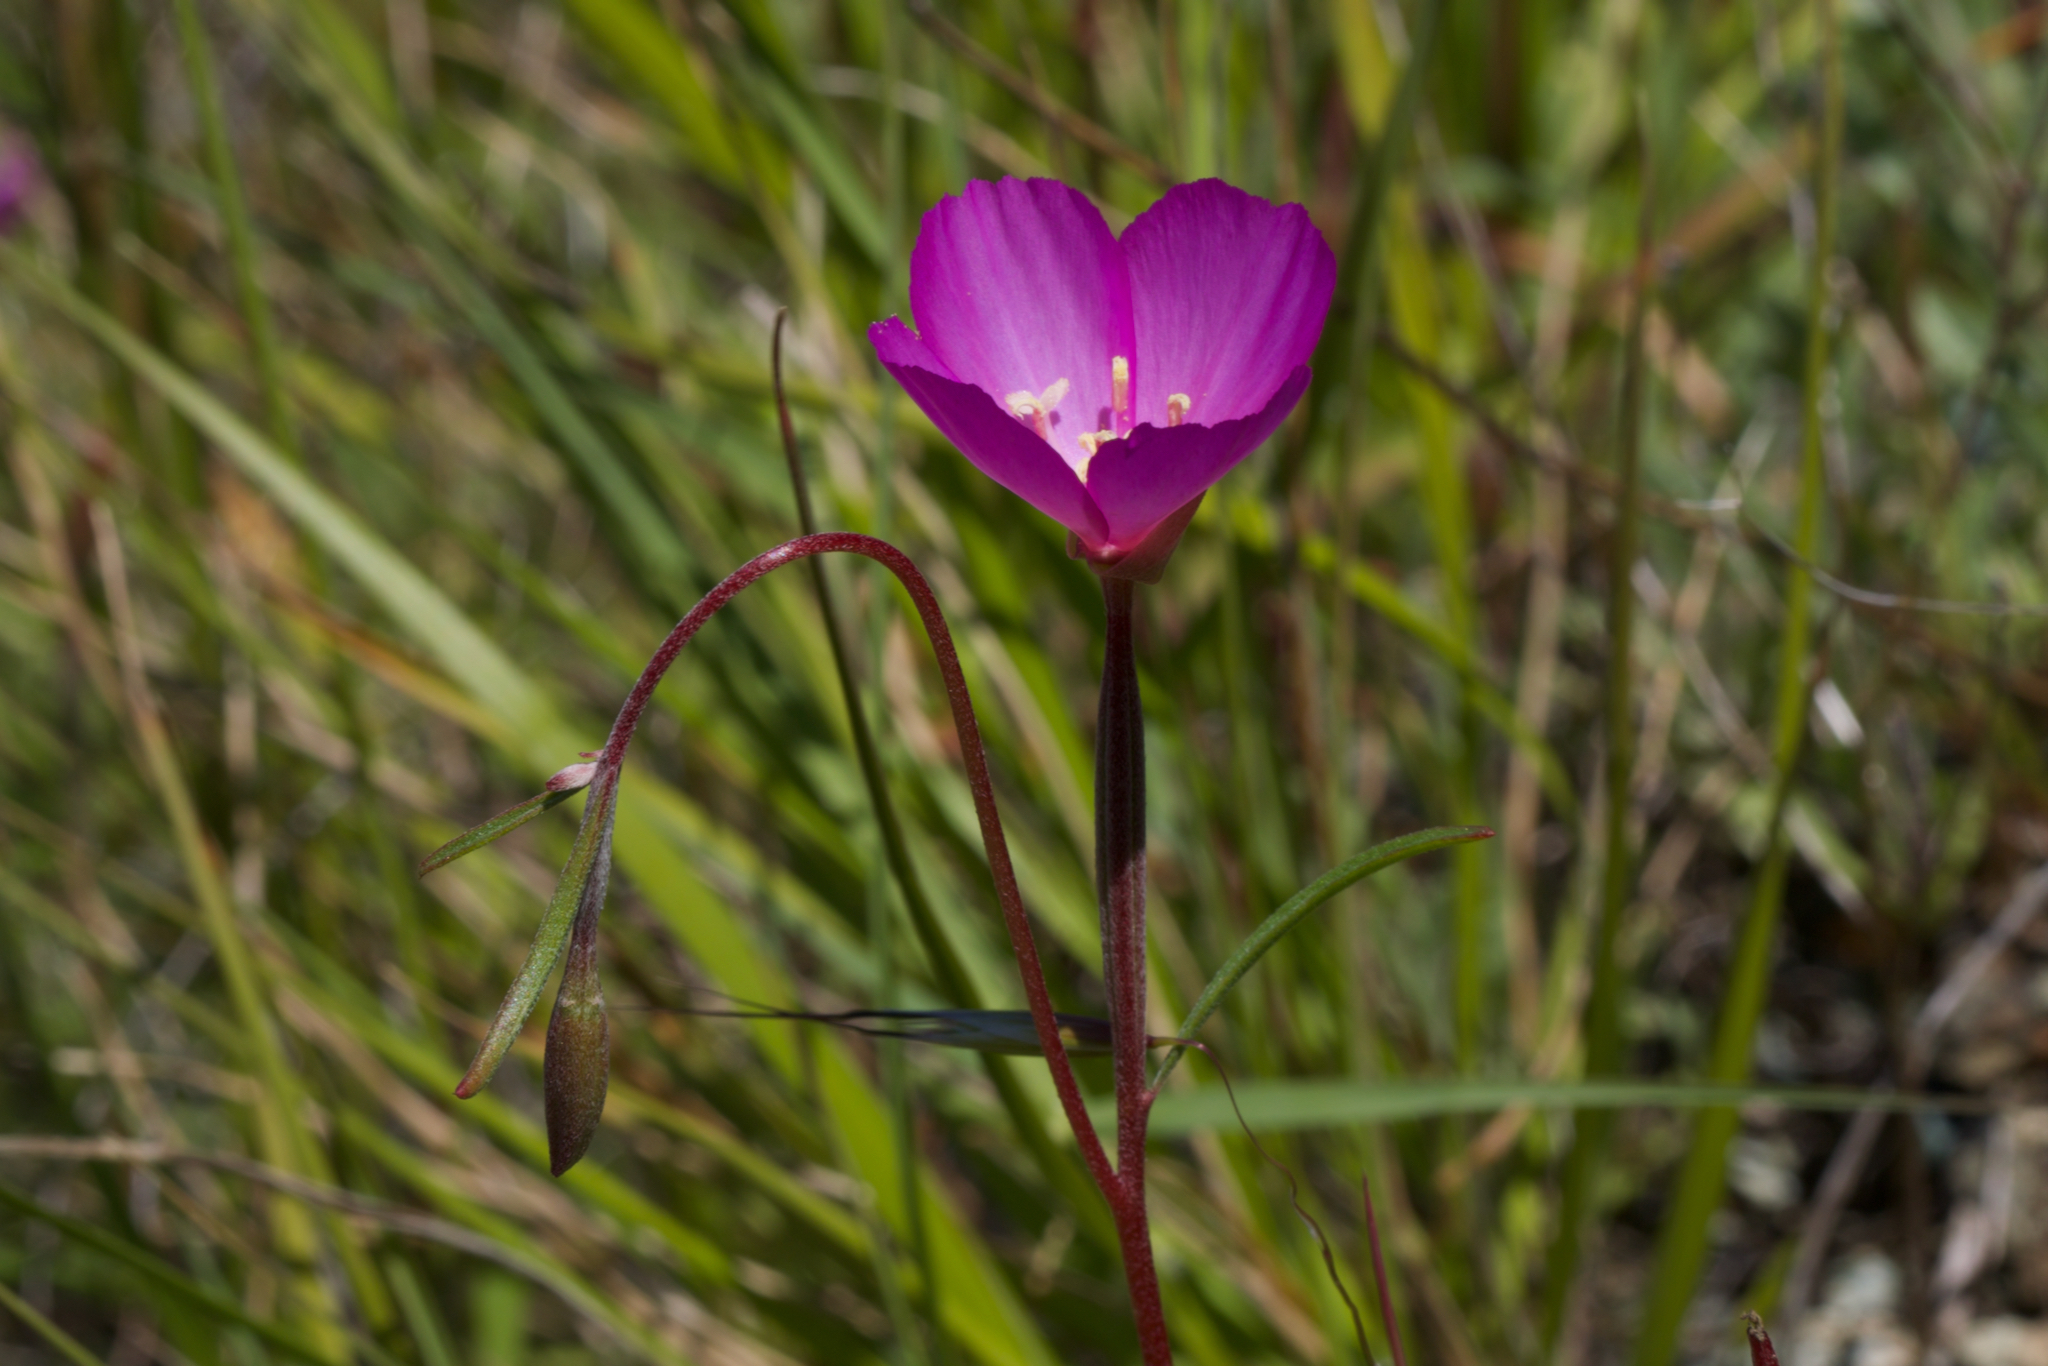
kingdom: Plantae
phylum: Tracheophyta
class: Magnoliopsida
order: Myrtales
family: Onagraceae
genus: Clarkia
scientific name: Clarkia gracilis
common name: Graceful clarkia
